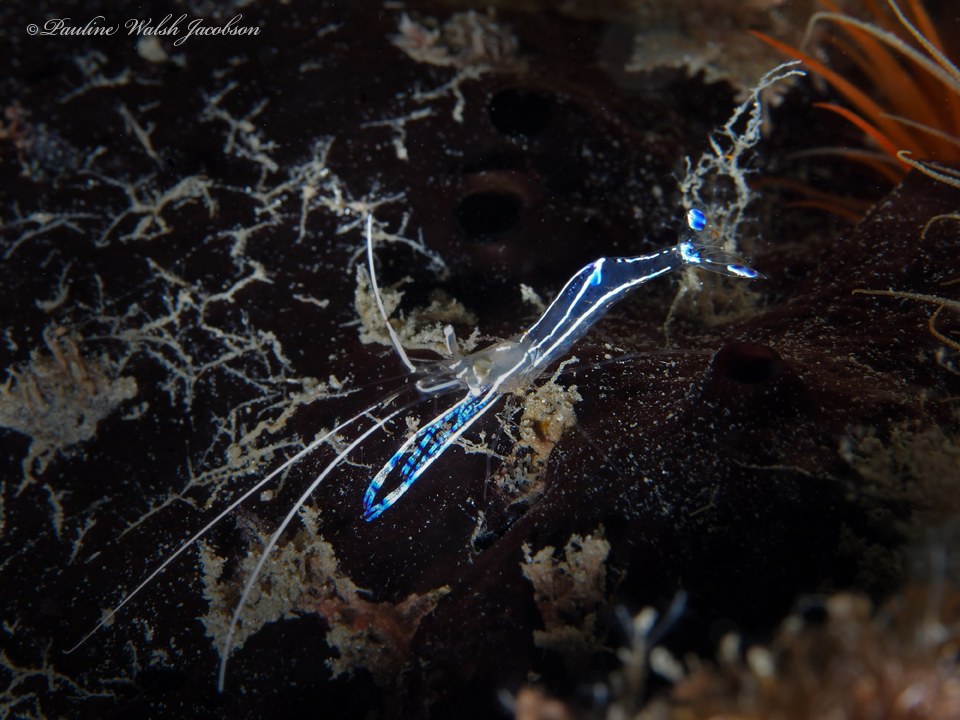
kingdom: Animalia
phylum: Arthropoda
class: Malacostraca
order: Decapoda
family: Palaemonidae
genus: Ancylomenes
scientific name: Ancylomenes pedersoni
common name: Pederson's cleaning shrimp
